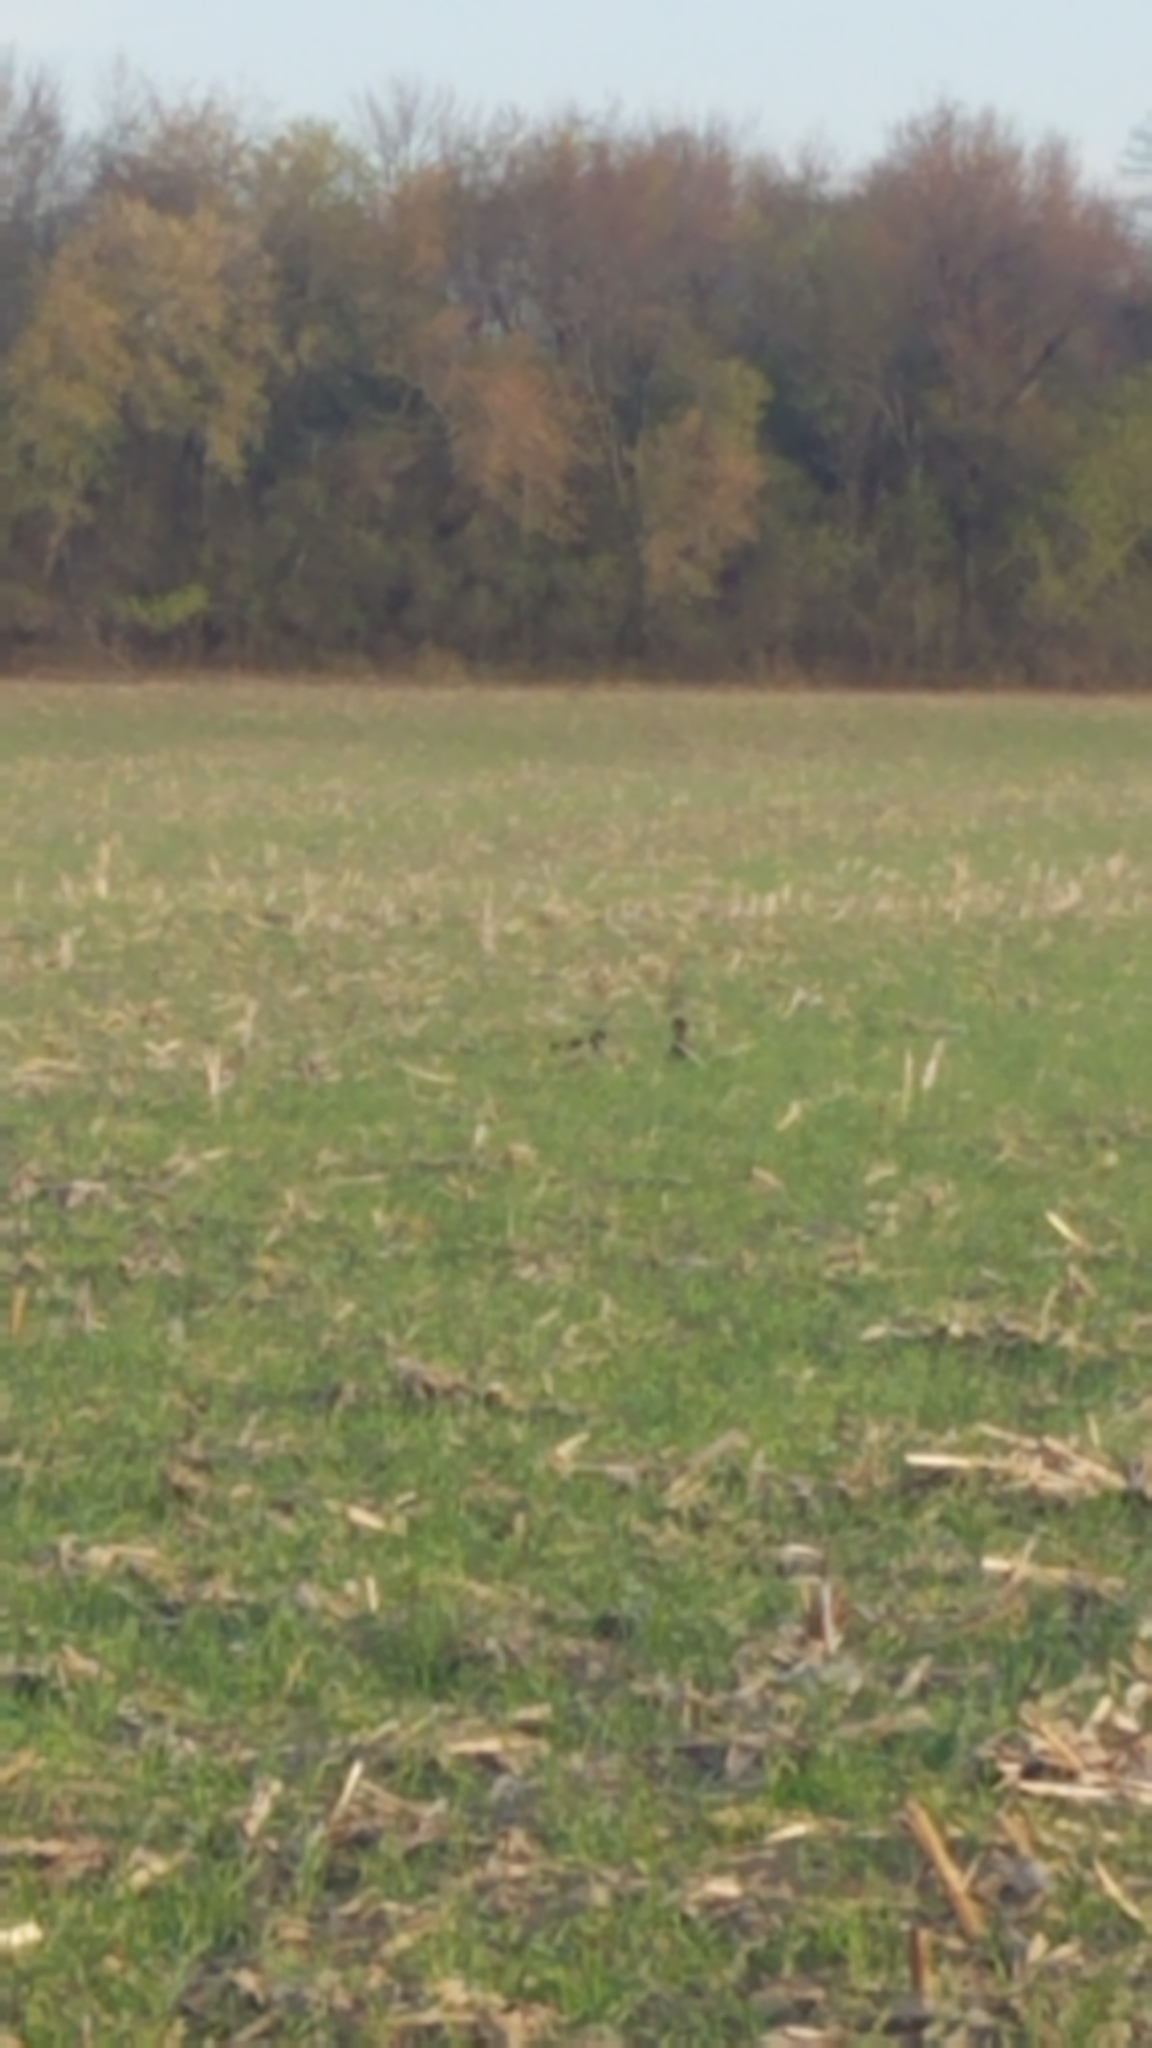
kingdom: Animalia
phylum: Chordata
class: Aves
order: Anseriformes
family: Anatidae
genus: Aix
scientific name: Aix sponsa
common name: Wood duck
